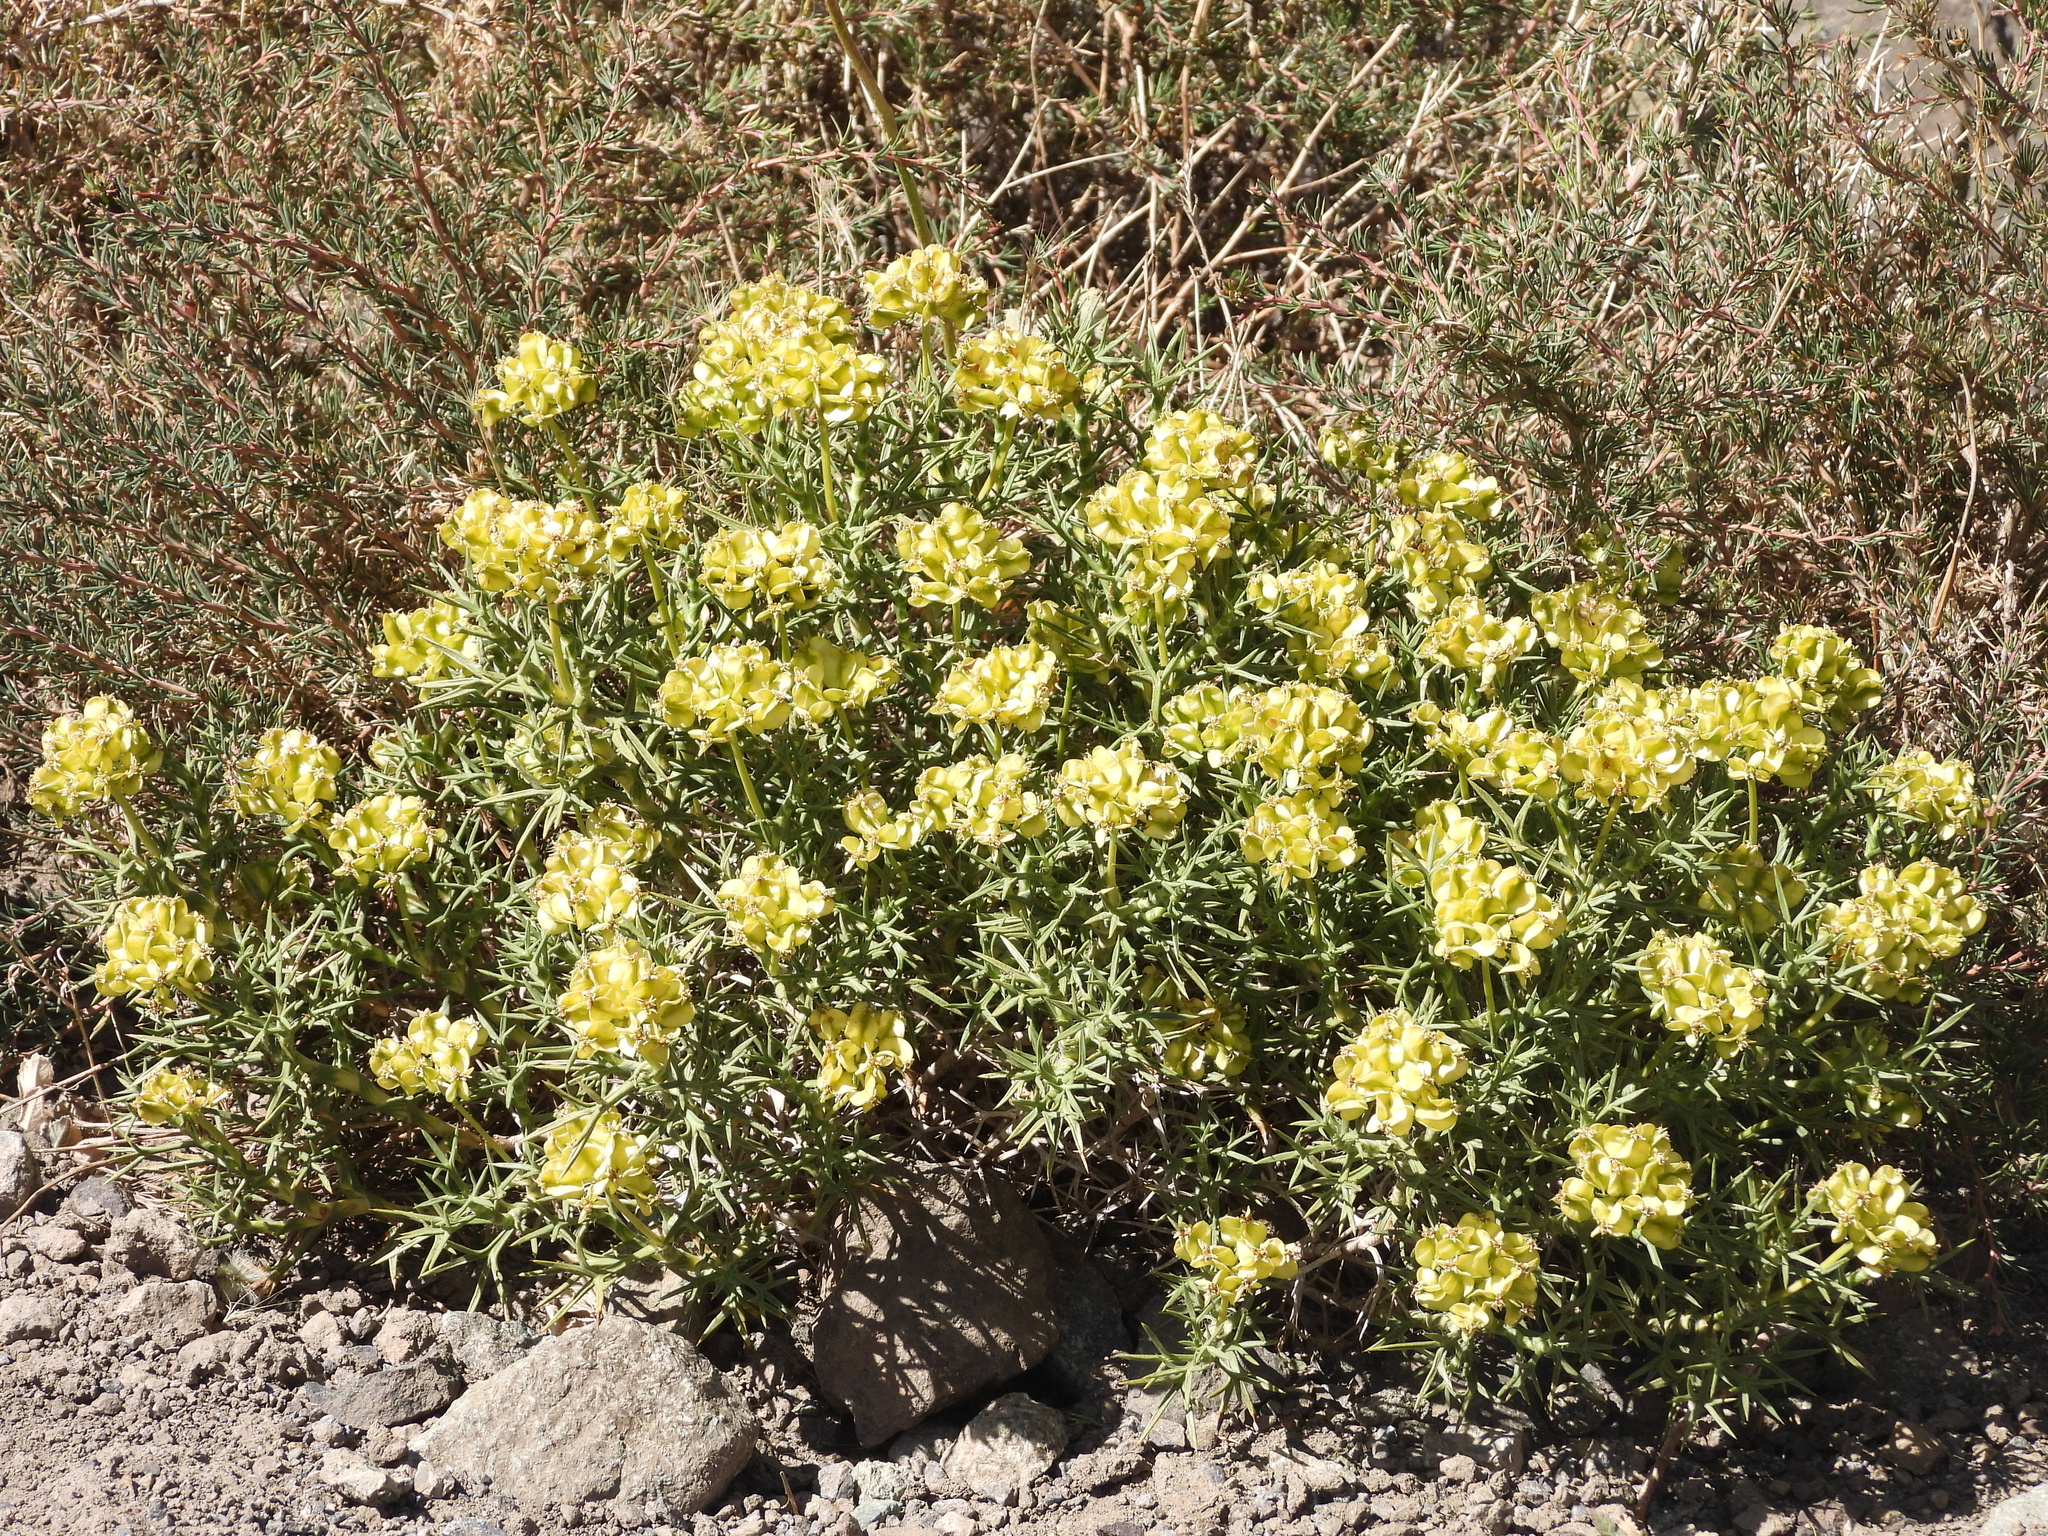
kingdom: Plantae
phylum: Tracheophyta
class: Magnoliopsida
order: Apiales
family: Apiaceae
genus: Azorella
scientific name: Azorella prolifera
